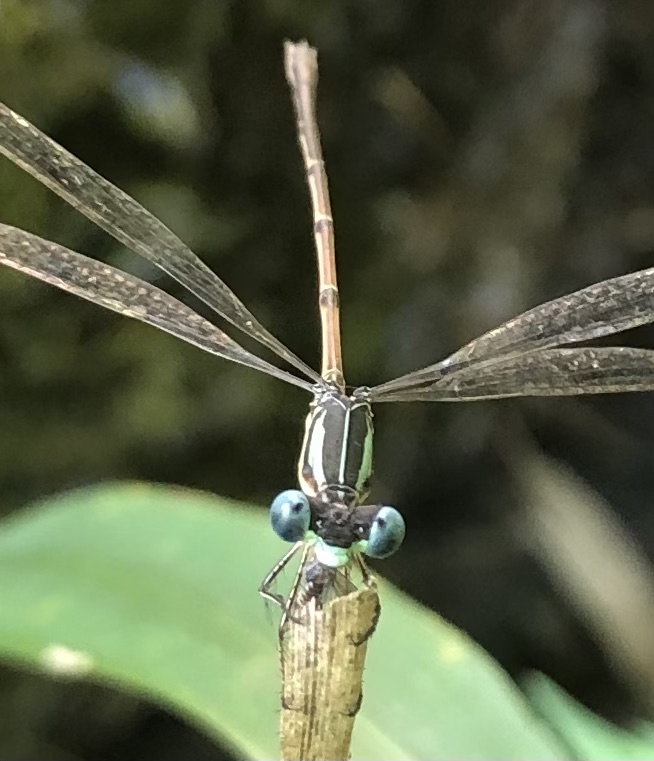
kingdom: Animalia
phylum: Arthropoda
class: Insecta
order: Odonata
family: Lestidae
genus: Lestes
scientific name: Lestes rectangularis
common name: Slender spreadwing
